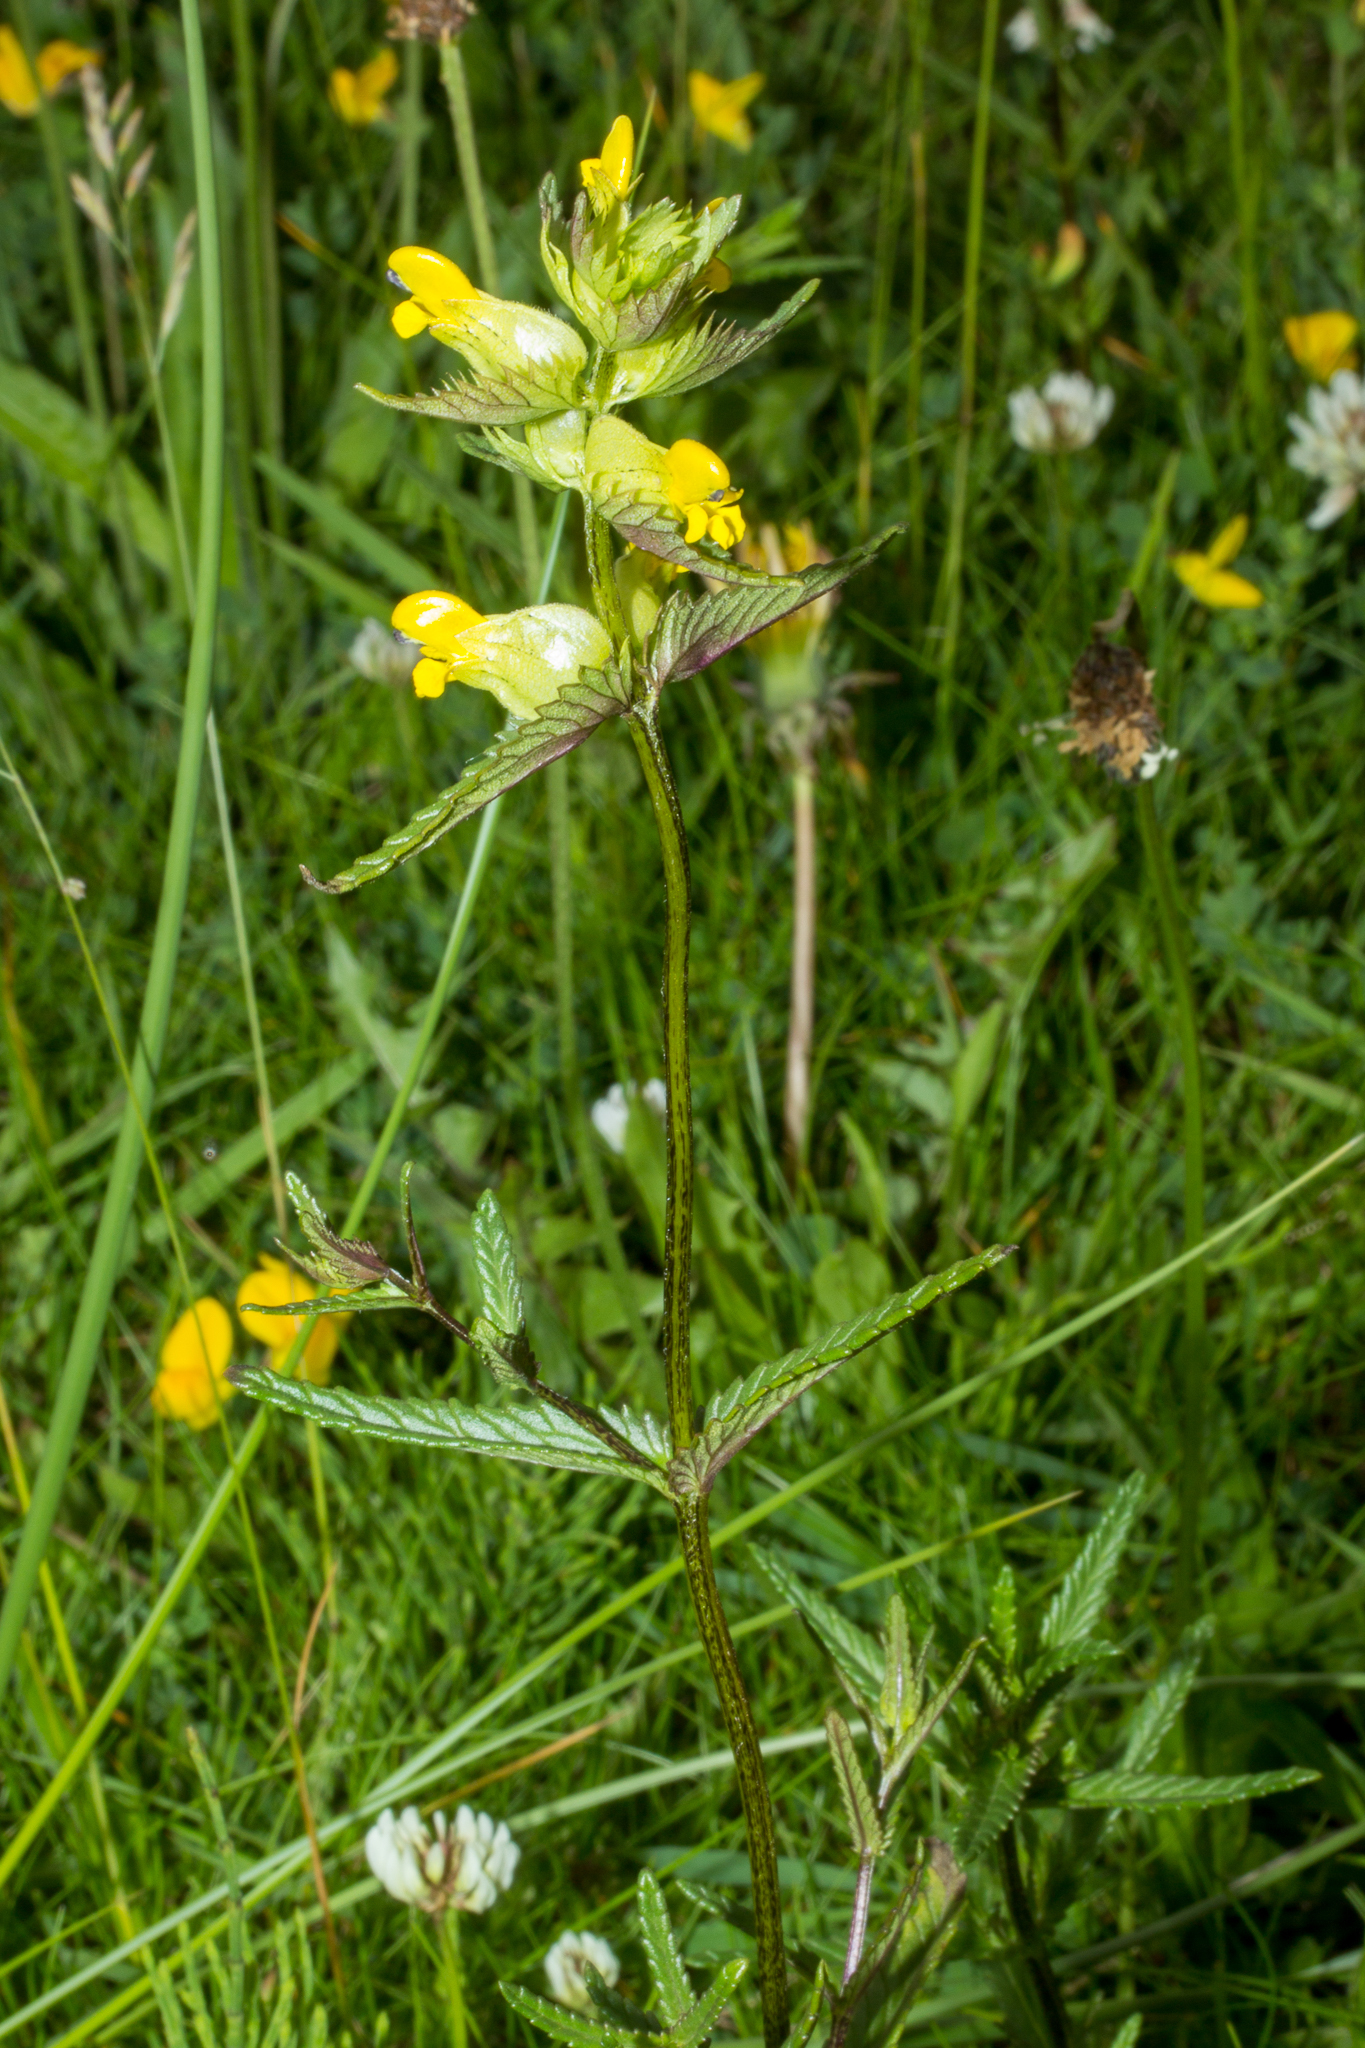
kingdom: Plantae
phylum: Tracheophyta
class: Magnoliopsida
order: Lamiales
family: Orobanchaceae
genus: Rhinanthus
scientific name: Rhinanthus minor
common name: Yellow-rattle
